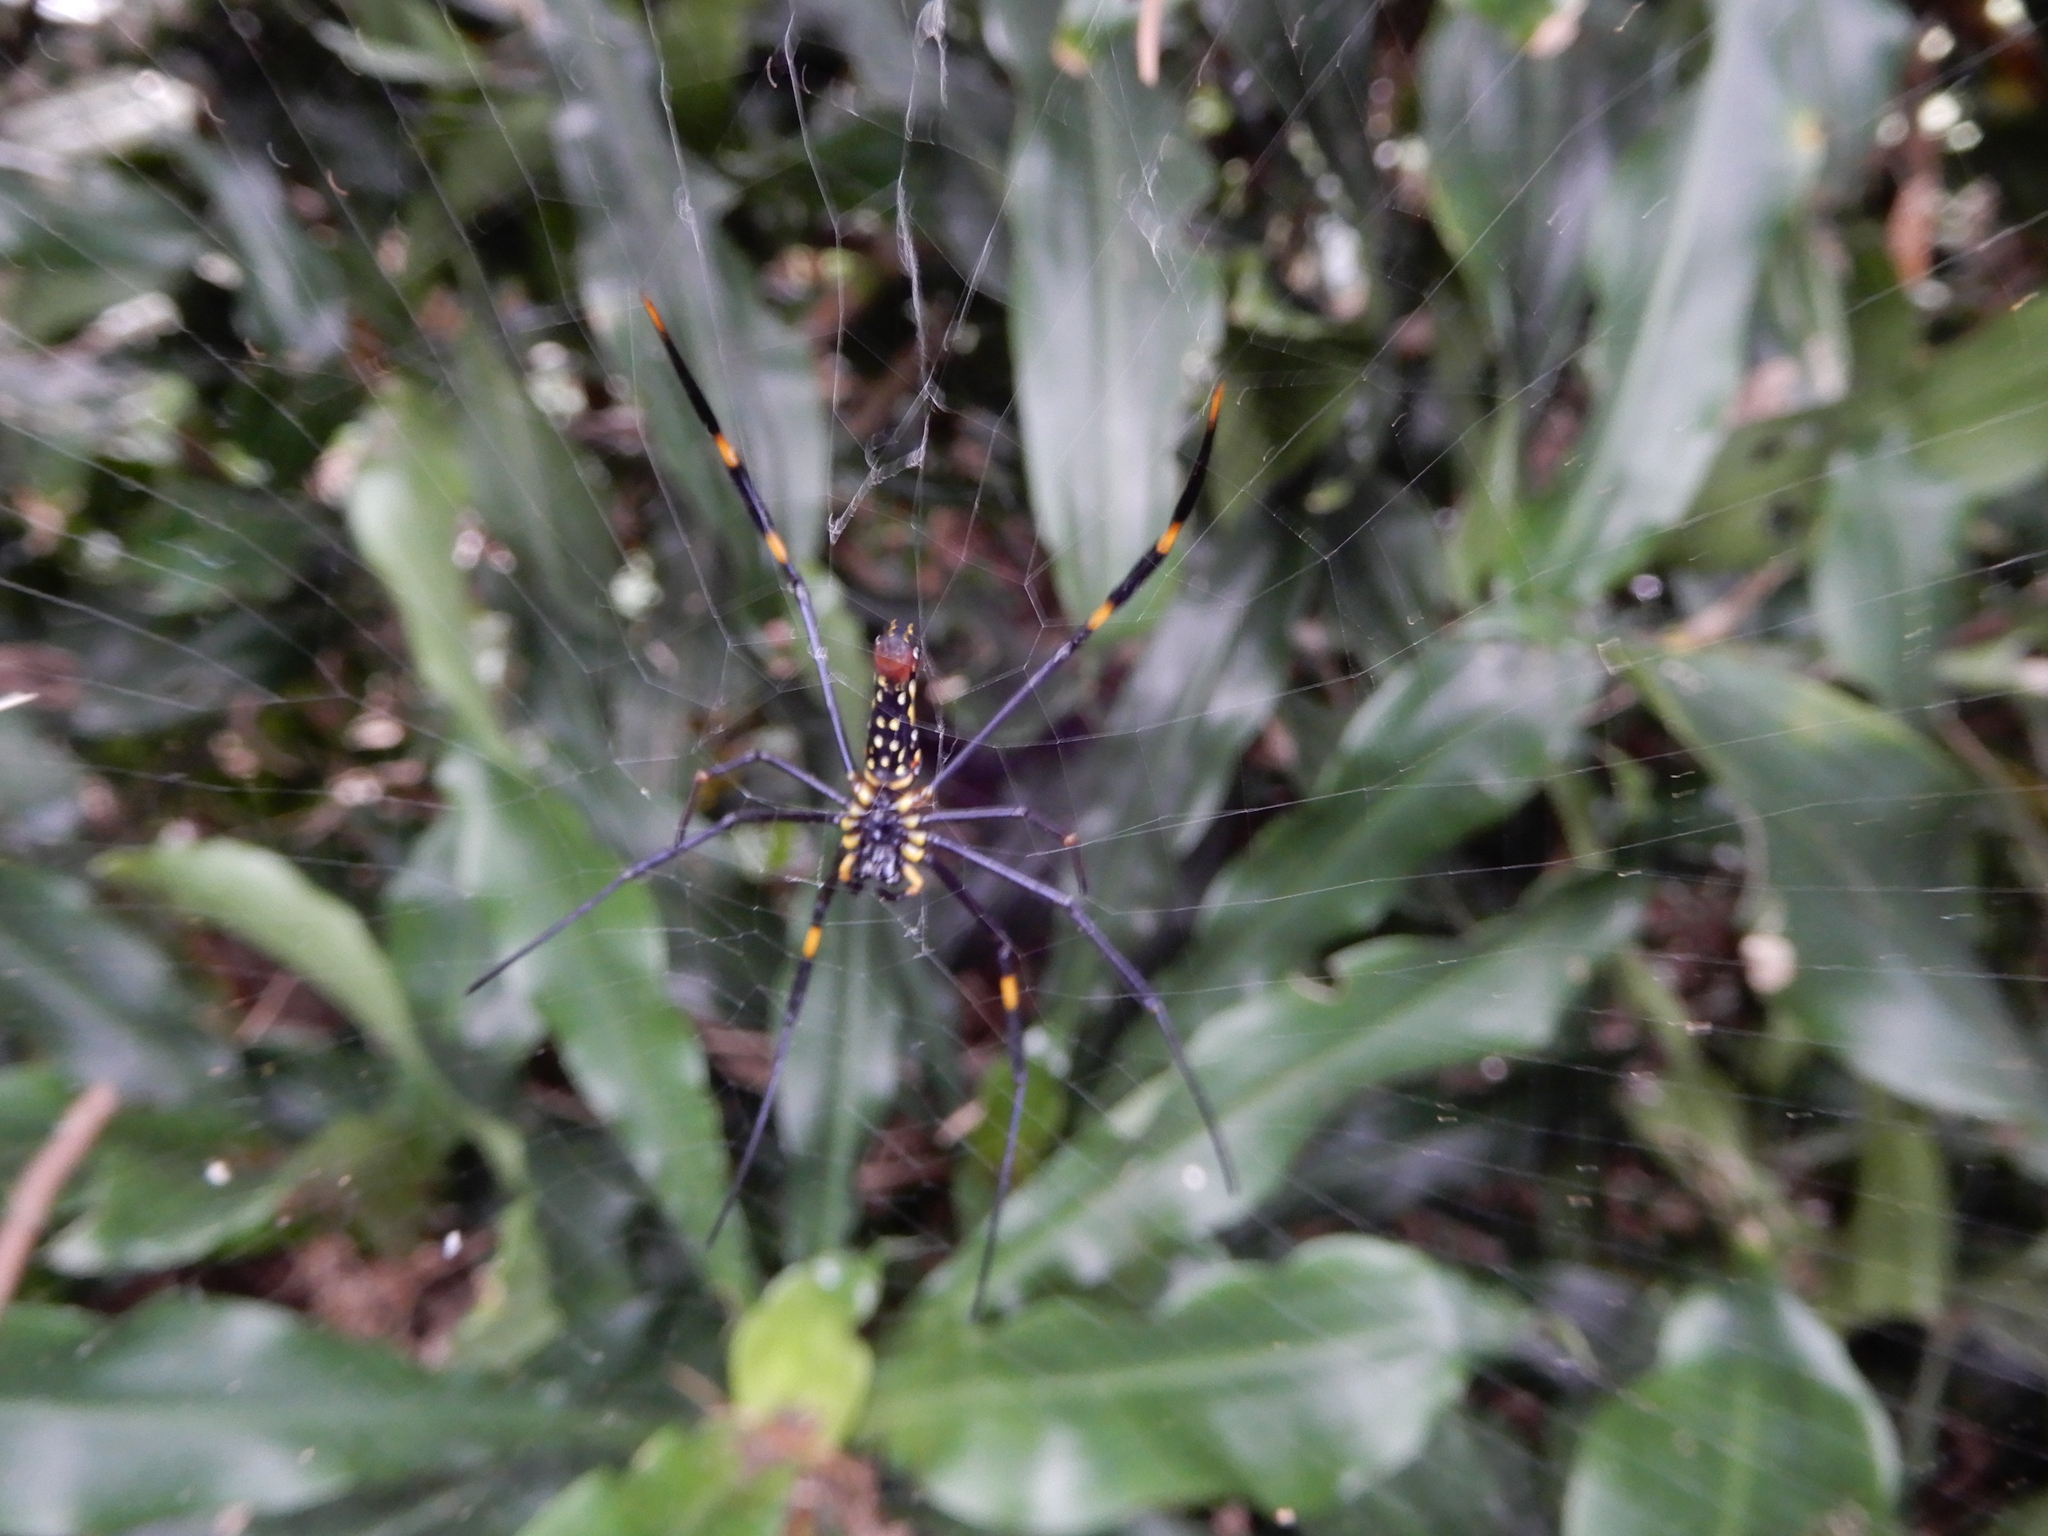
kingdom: Animalia
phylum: Arthropoda
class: Arachnida
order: Araneae
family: Araneidae
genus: Nephila
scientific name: Nephila pilipes
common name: Giant golden orb weaver
